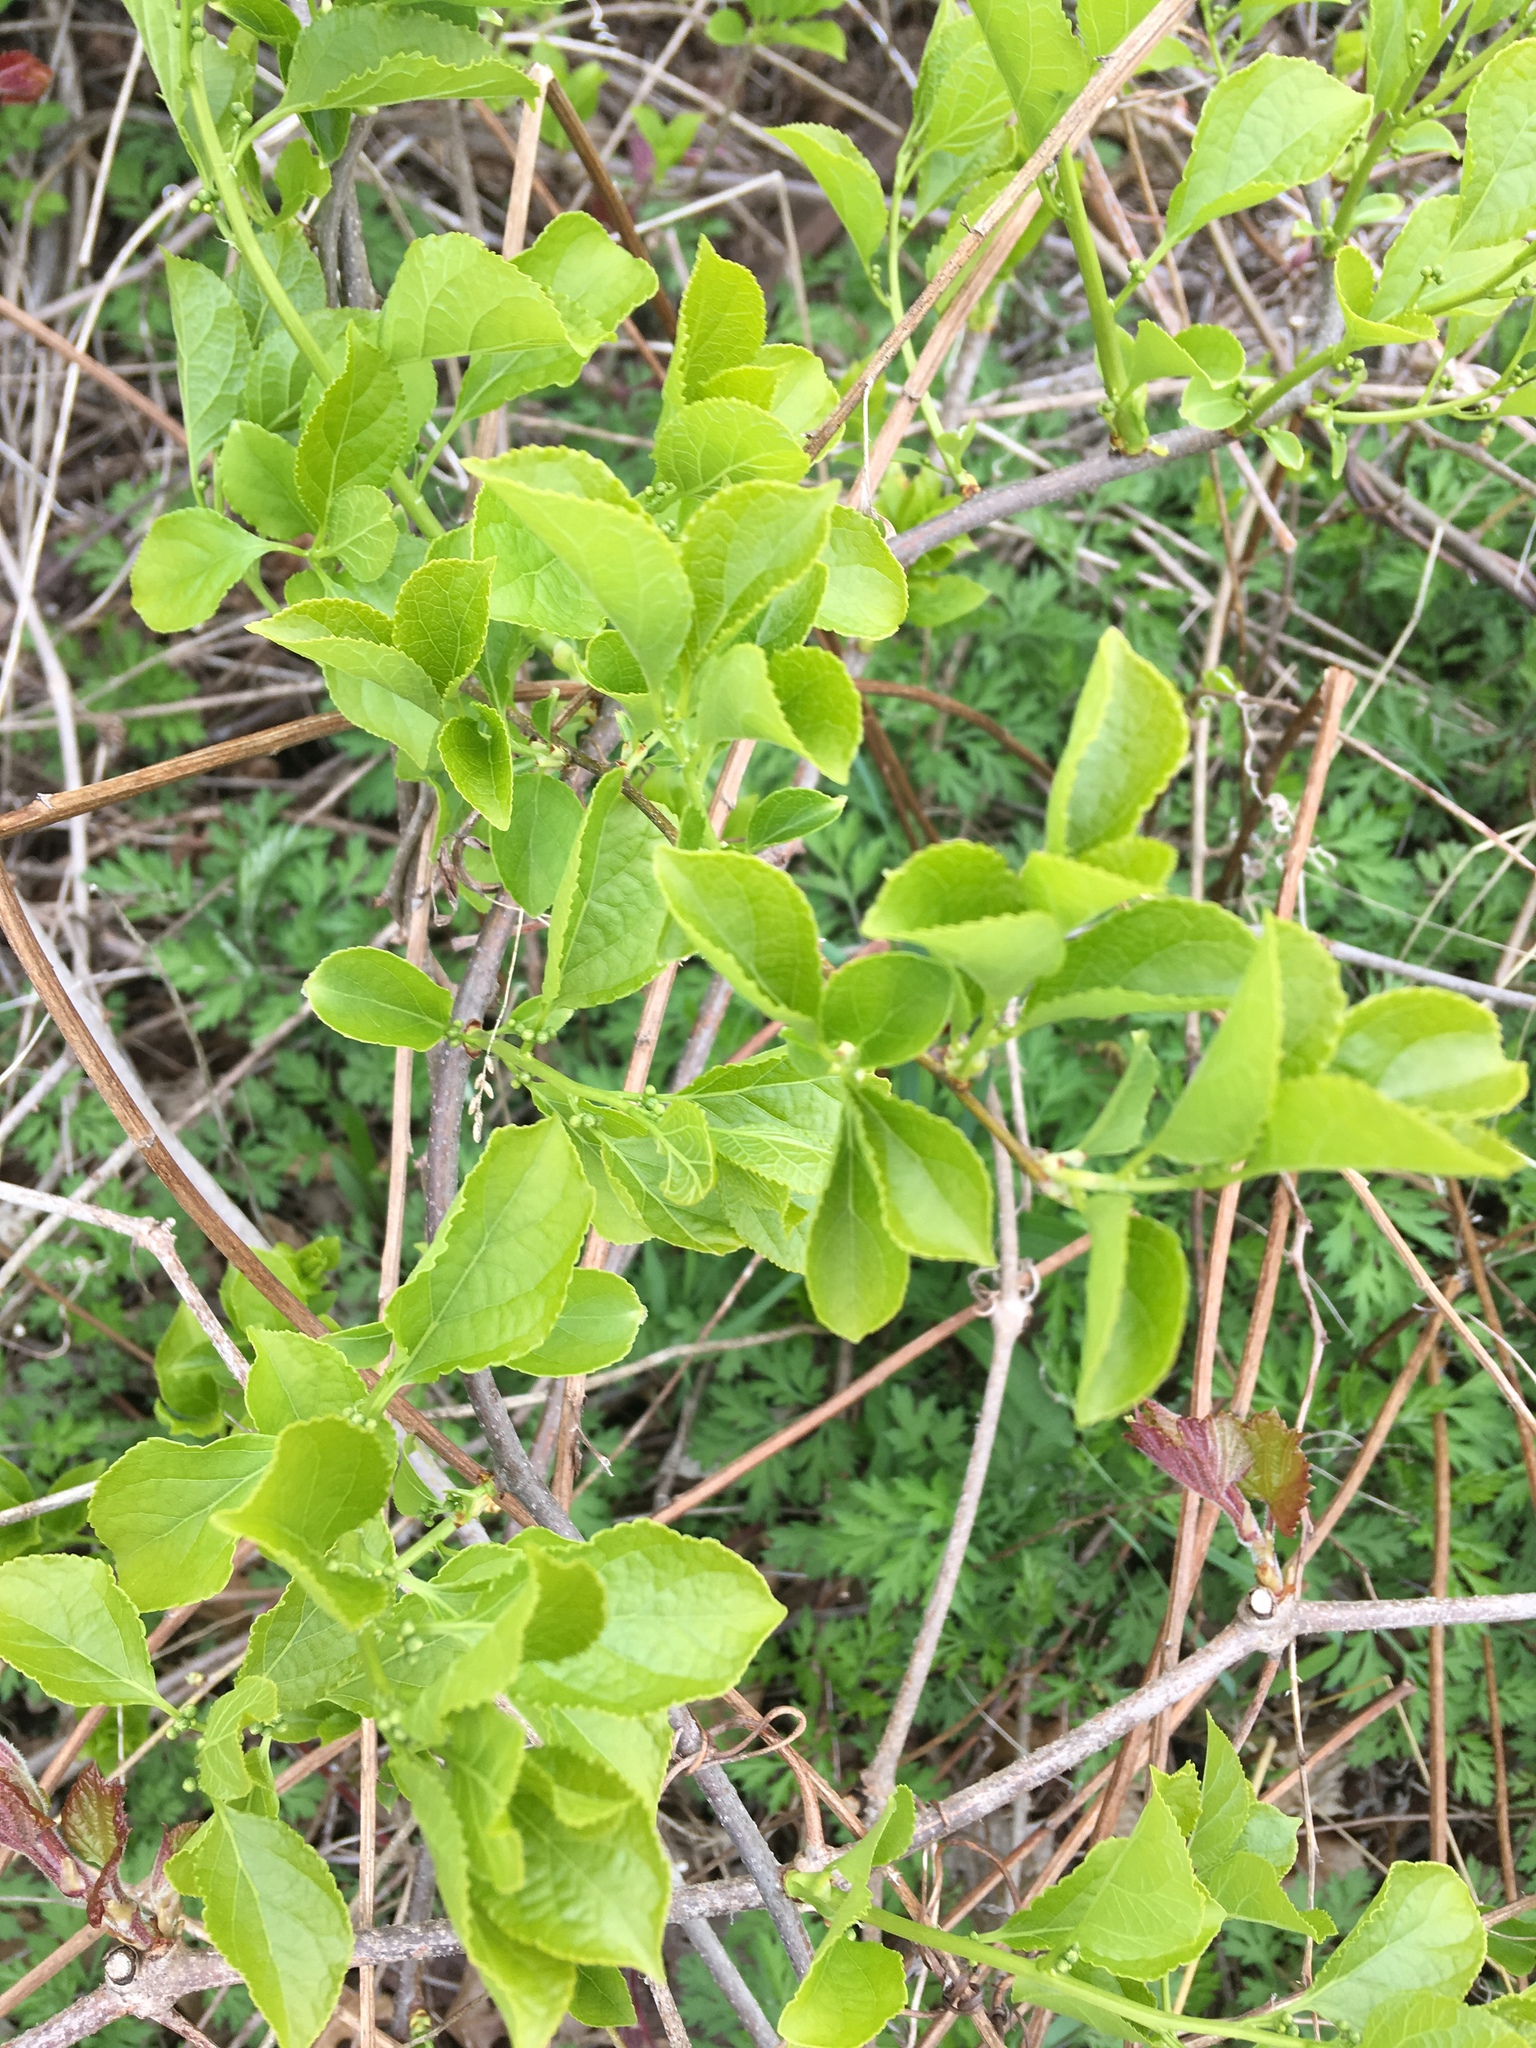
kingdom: Plantae
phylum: Tracheophyta
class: Magnoliopsida
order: Celastrales
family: Celastraceae
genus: Celastrus
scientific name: Celastrus orbiculatus
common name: Oriental bittersweet
